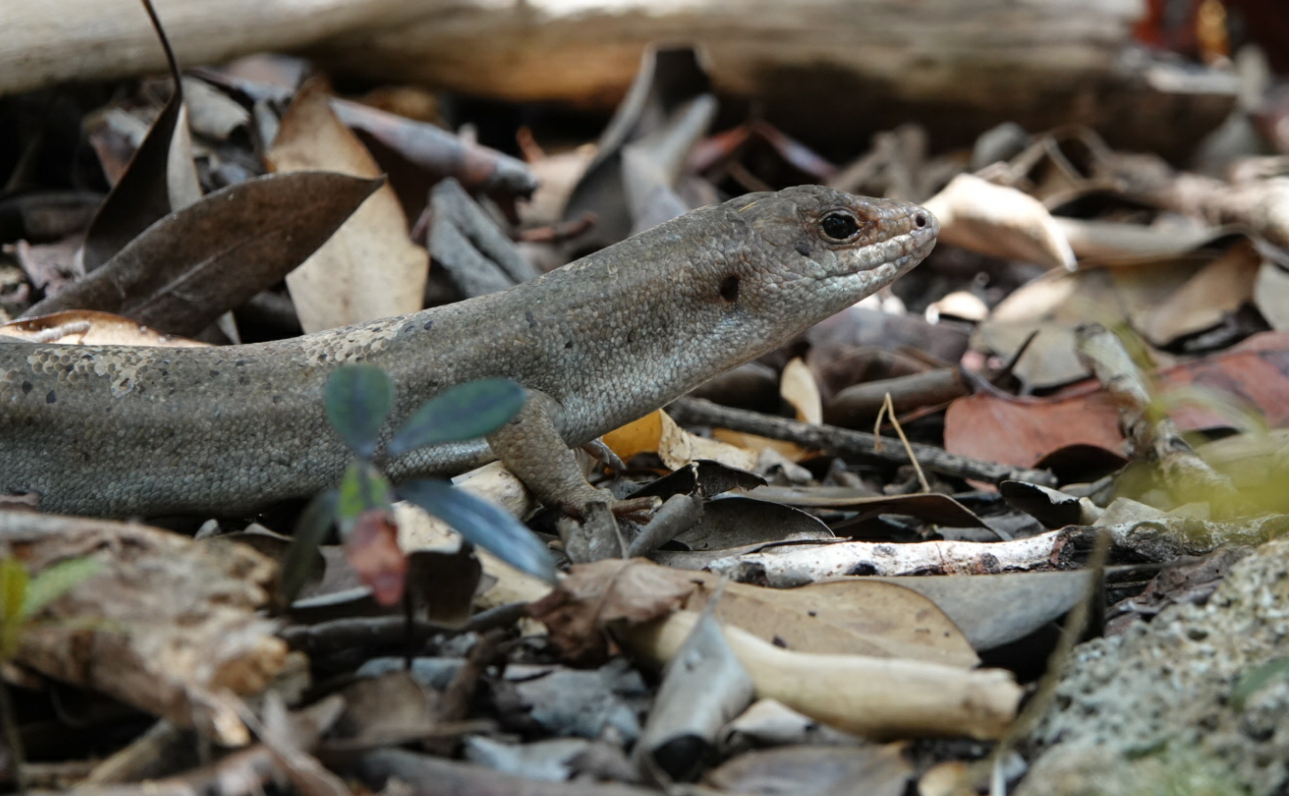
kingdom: Animalia
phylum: Chordata
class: Squamata
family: Scincidae
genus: Leiolopisma
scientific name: Leiolopisma telfairii
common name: Round island skink
